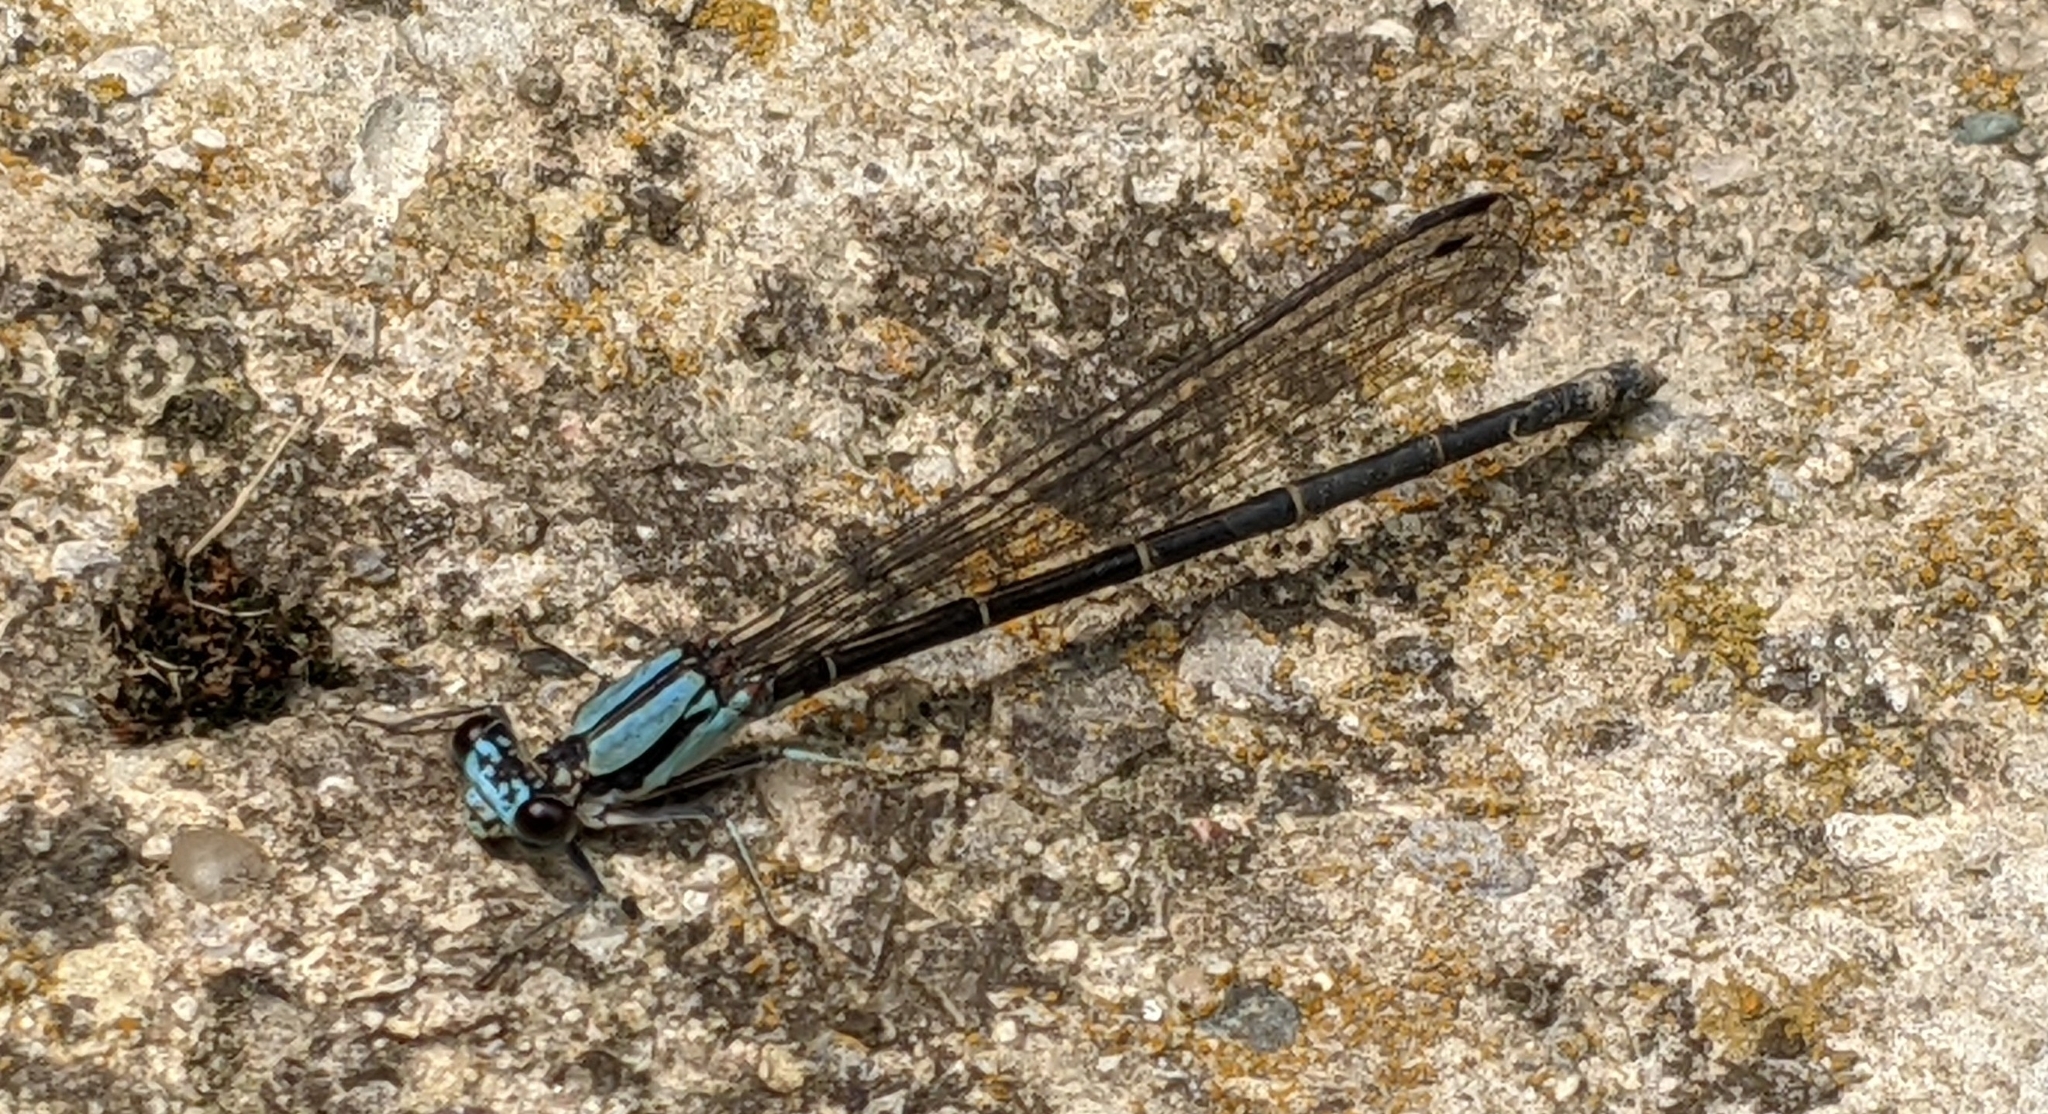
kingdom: Animalia
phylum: Arthropoda
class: Insecta
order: Odonata
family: Coenagrionidae
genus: Argia
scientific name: Argia tibialis
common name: Blue-tipped dancer
